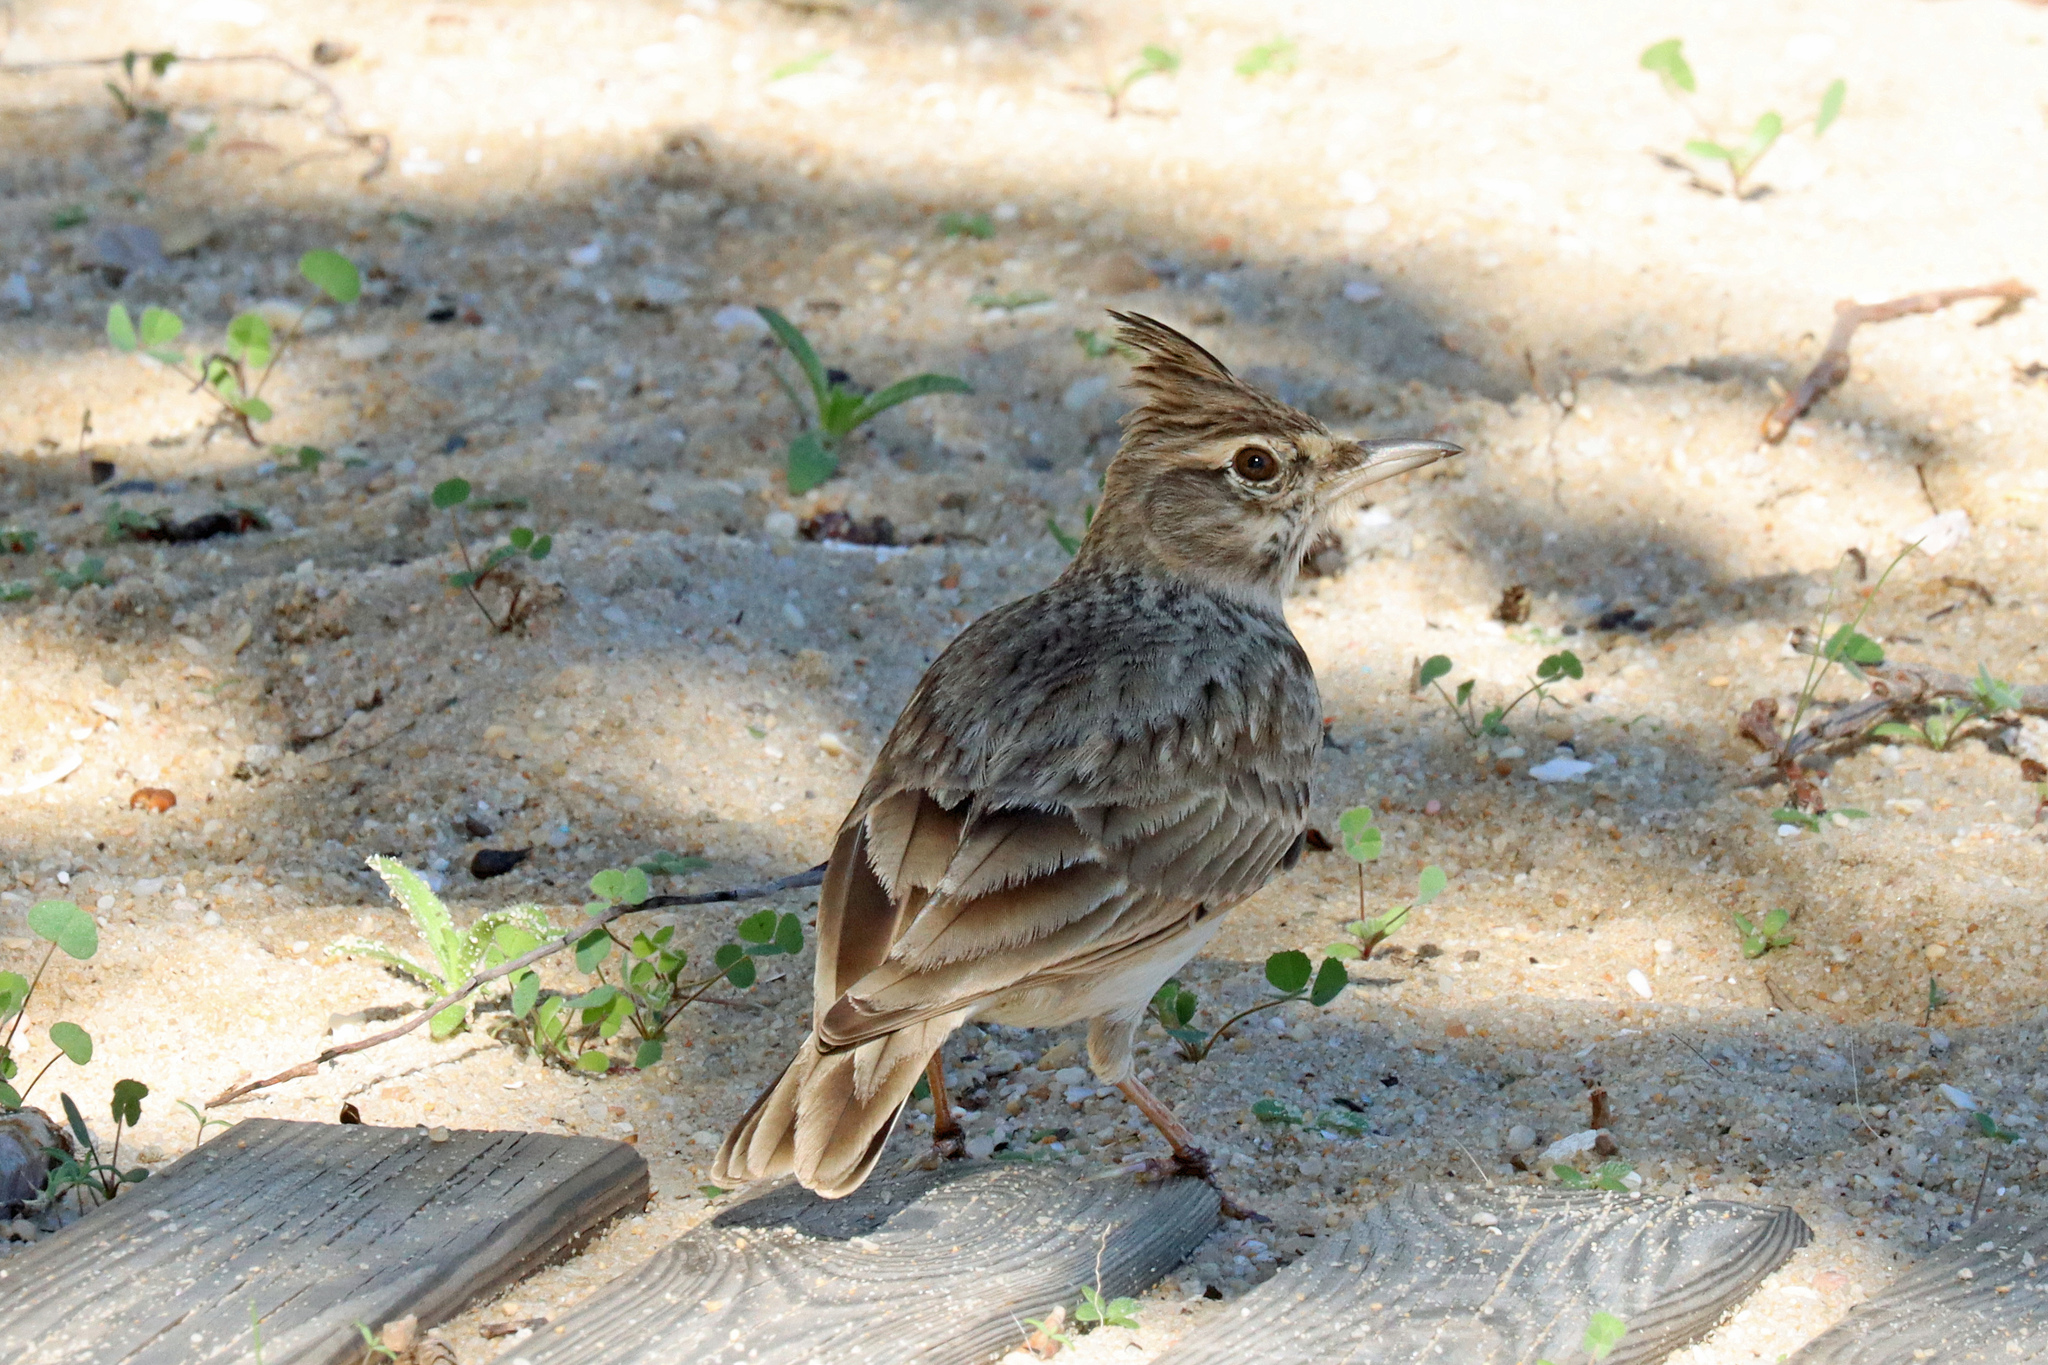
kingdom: Animalia
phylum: Chordata
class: Aves
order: Passeriformes
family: Alaudidae
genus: Galerida
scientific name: Galerida cristata
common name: Crested lark
